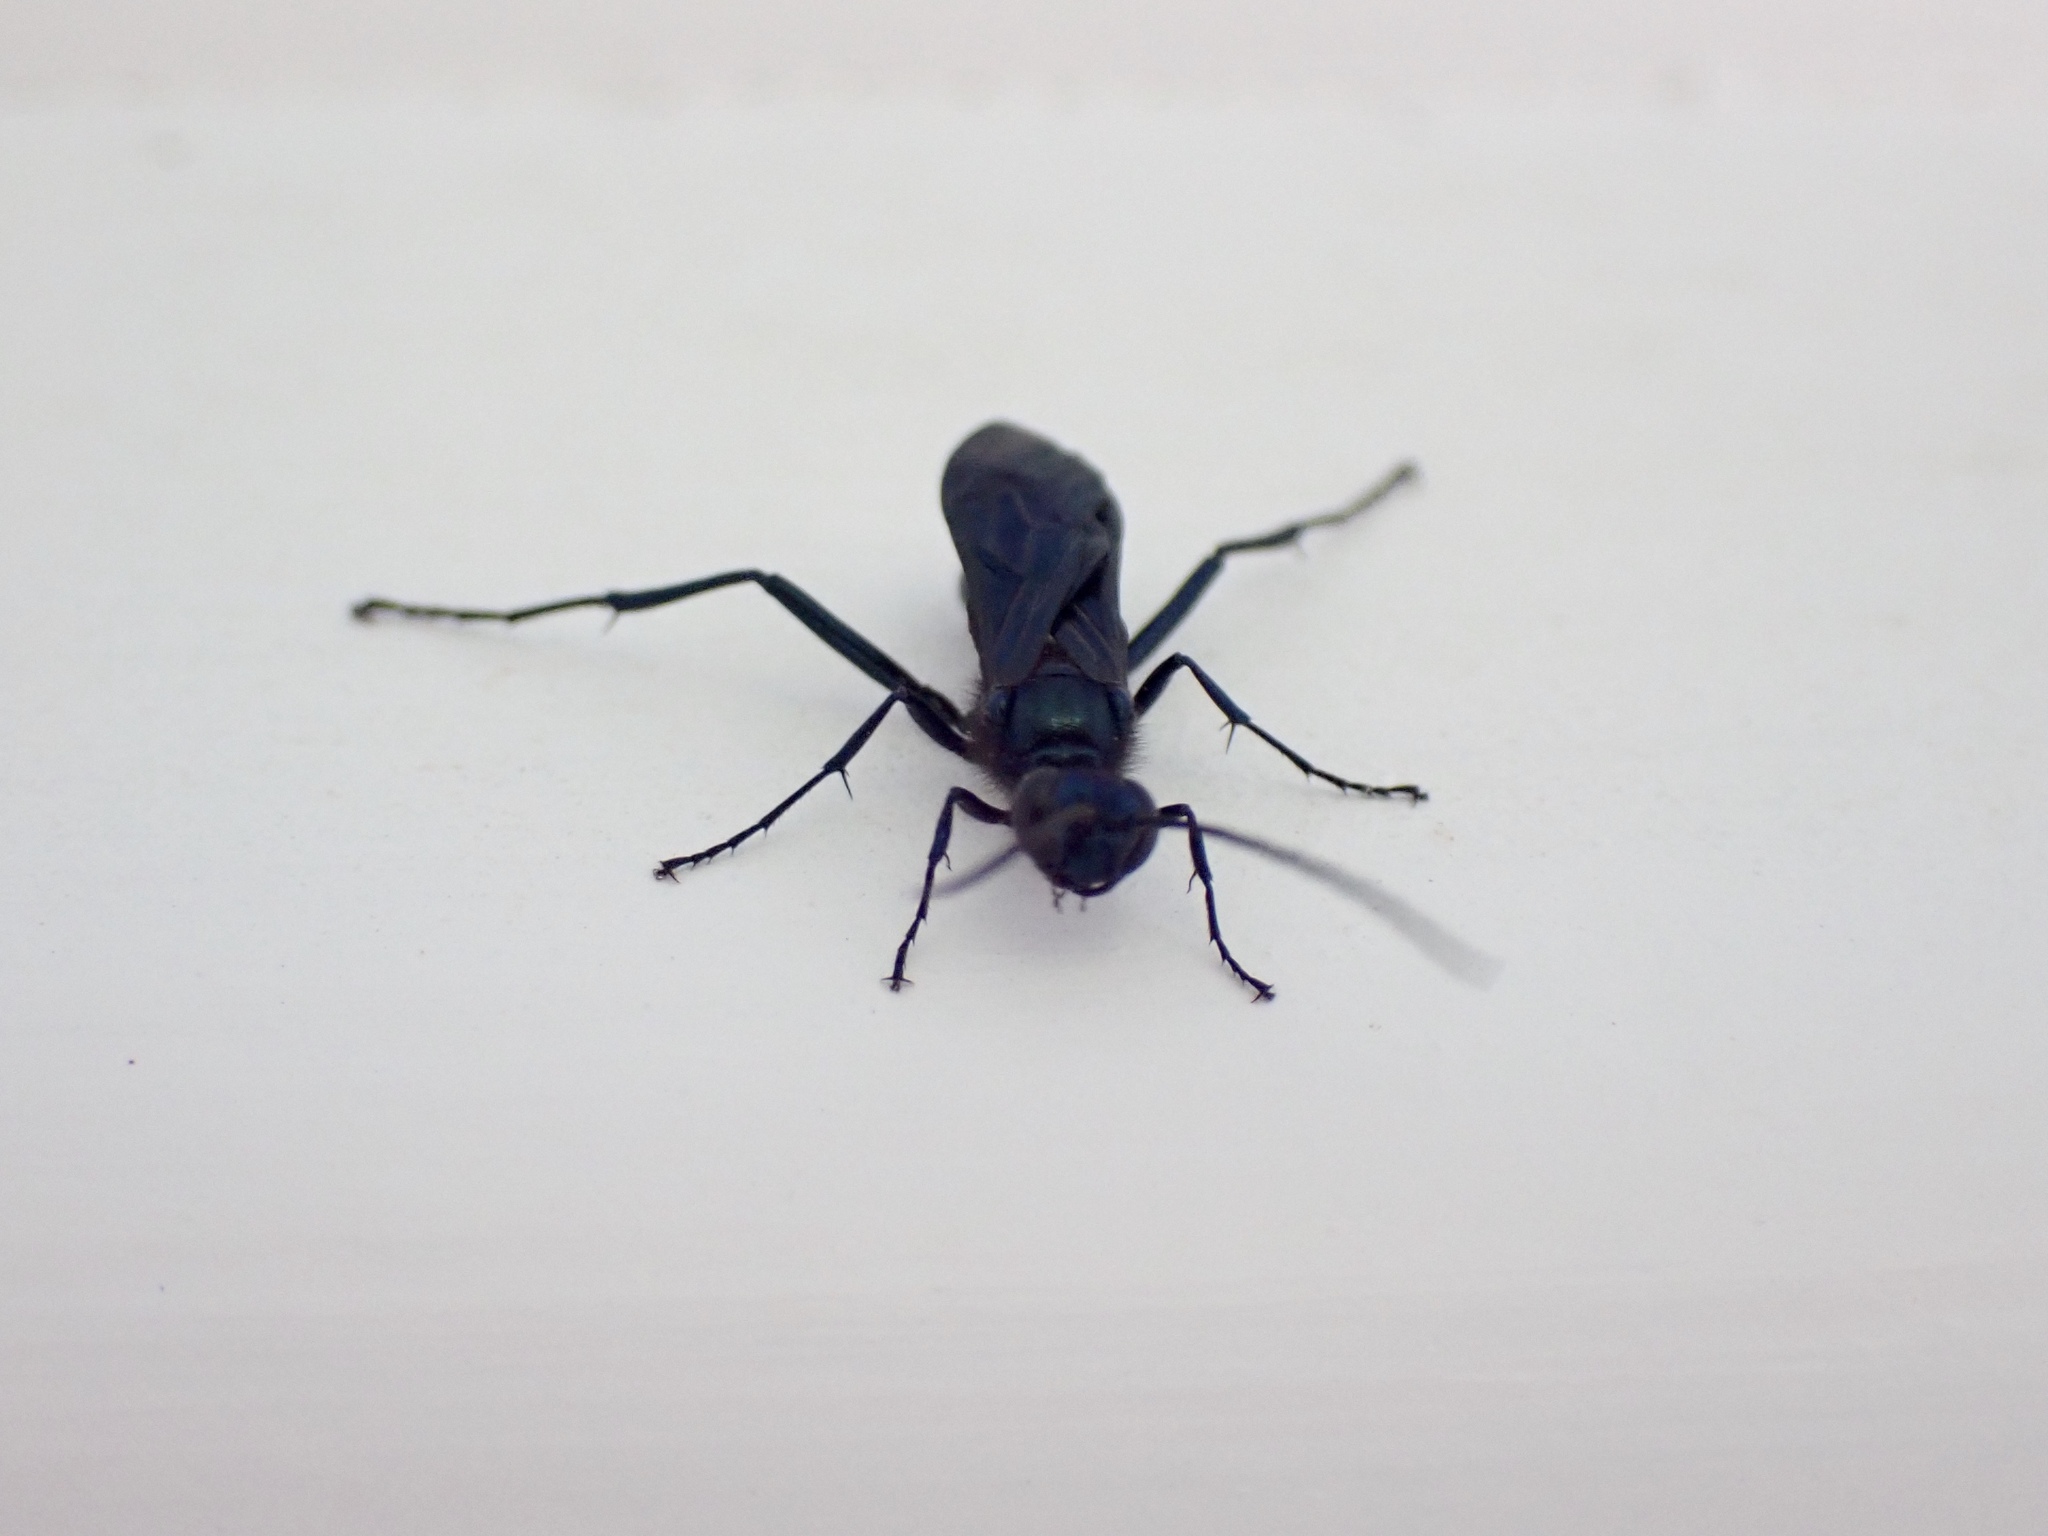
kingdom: Animalia
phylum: Arthropoda
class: Insecta
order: Hymenoptera
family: Sphecidae
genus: Chalybion
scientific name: Chalybion californicum
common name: Mud dauber
